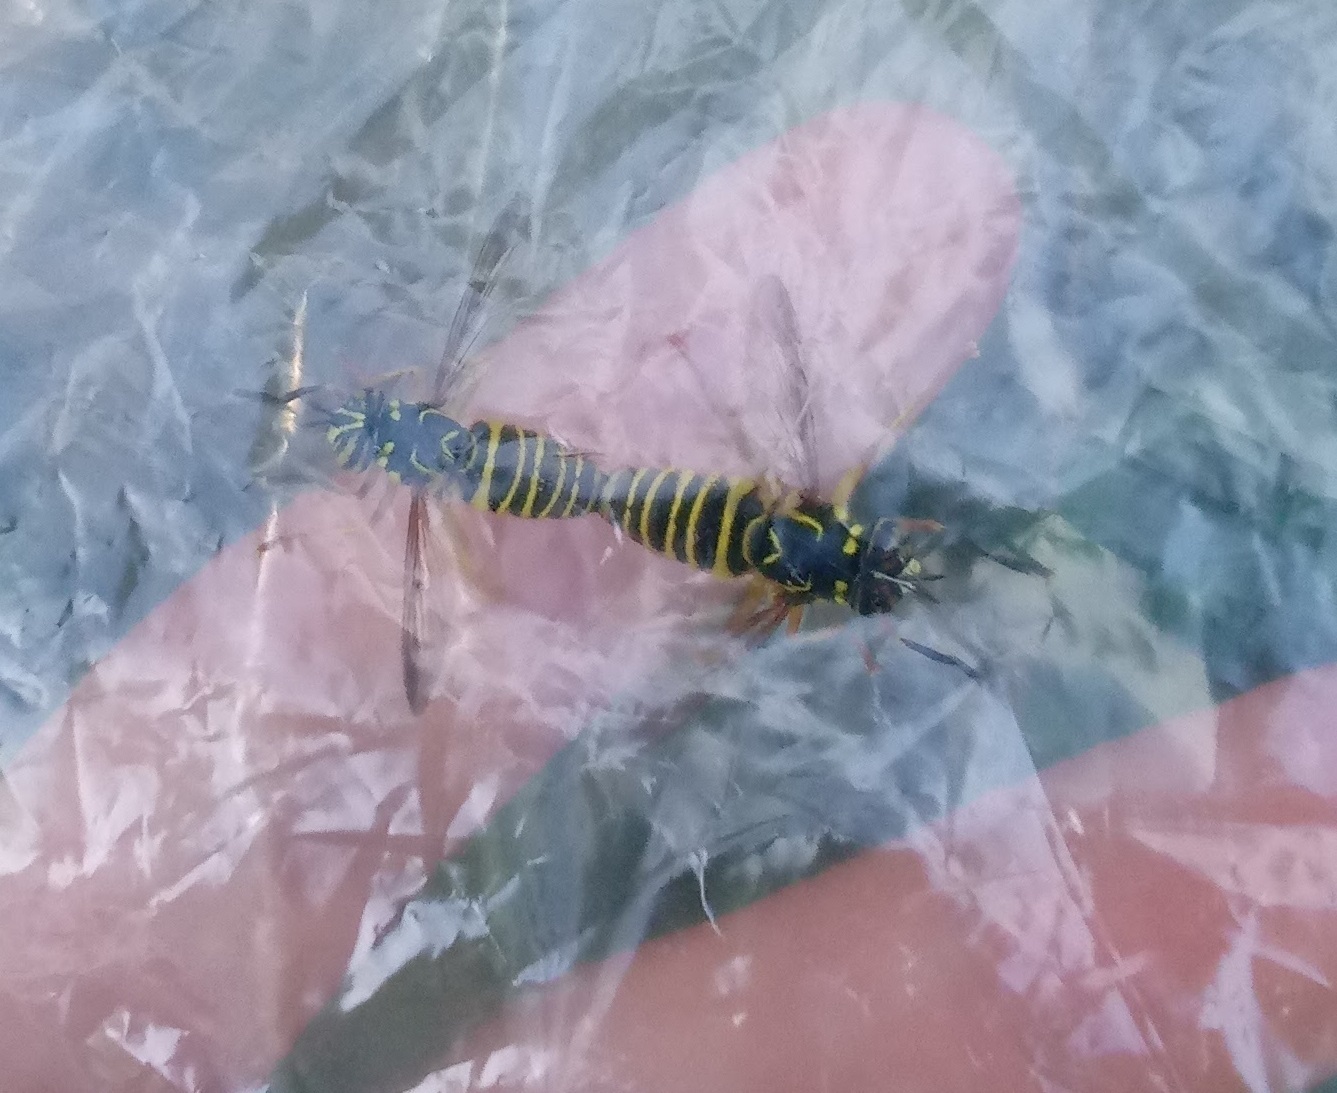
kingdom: Animalia
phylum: Arthropoda
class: Insecta
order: Diptera
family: Syrphidae
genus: Spilomyia
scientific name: Spilomyia longicornis
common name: Eastern hornet fly
